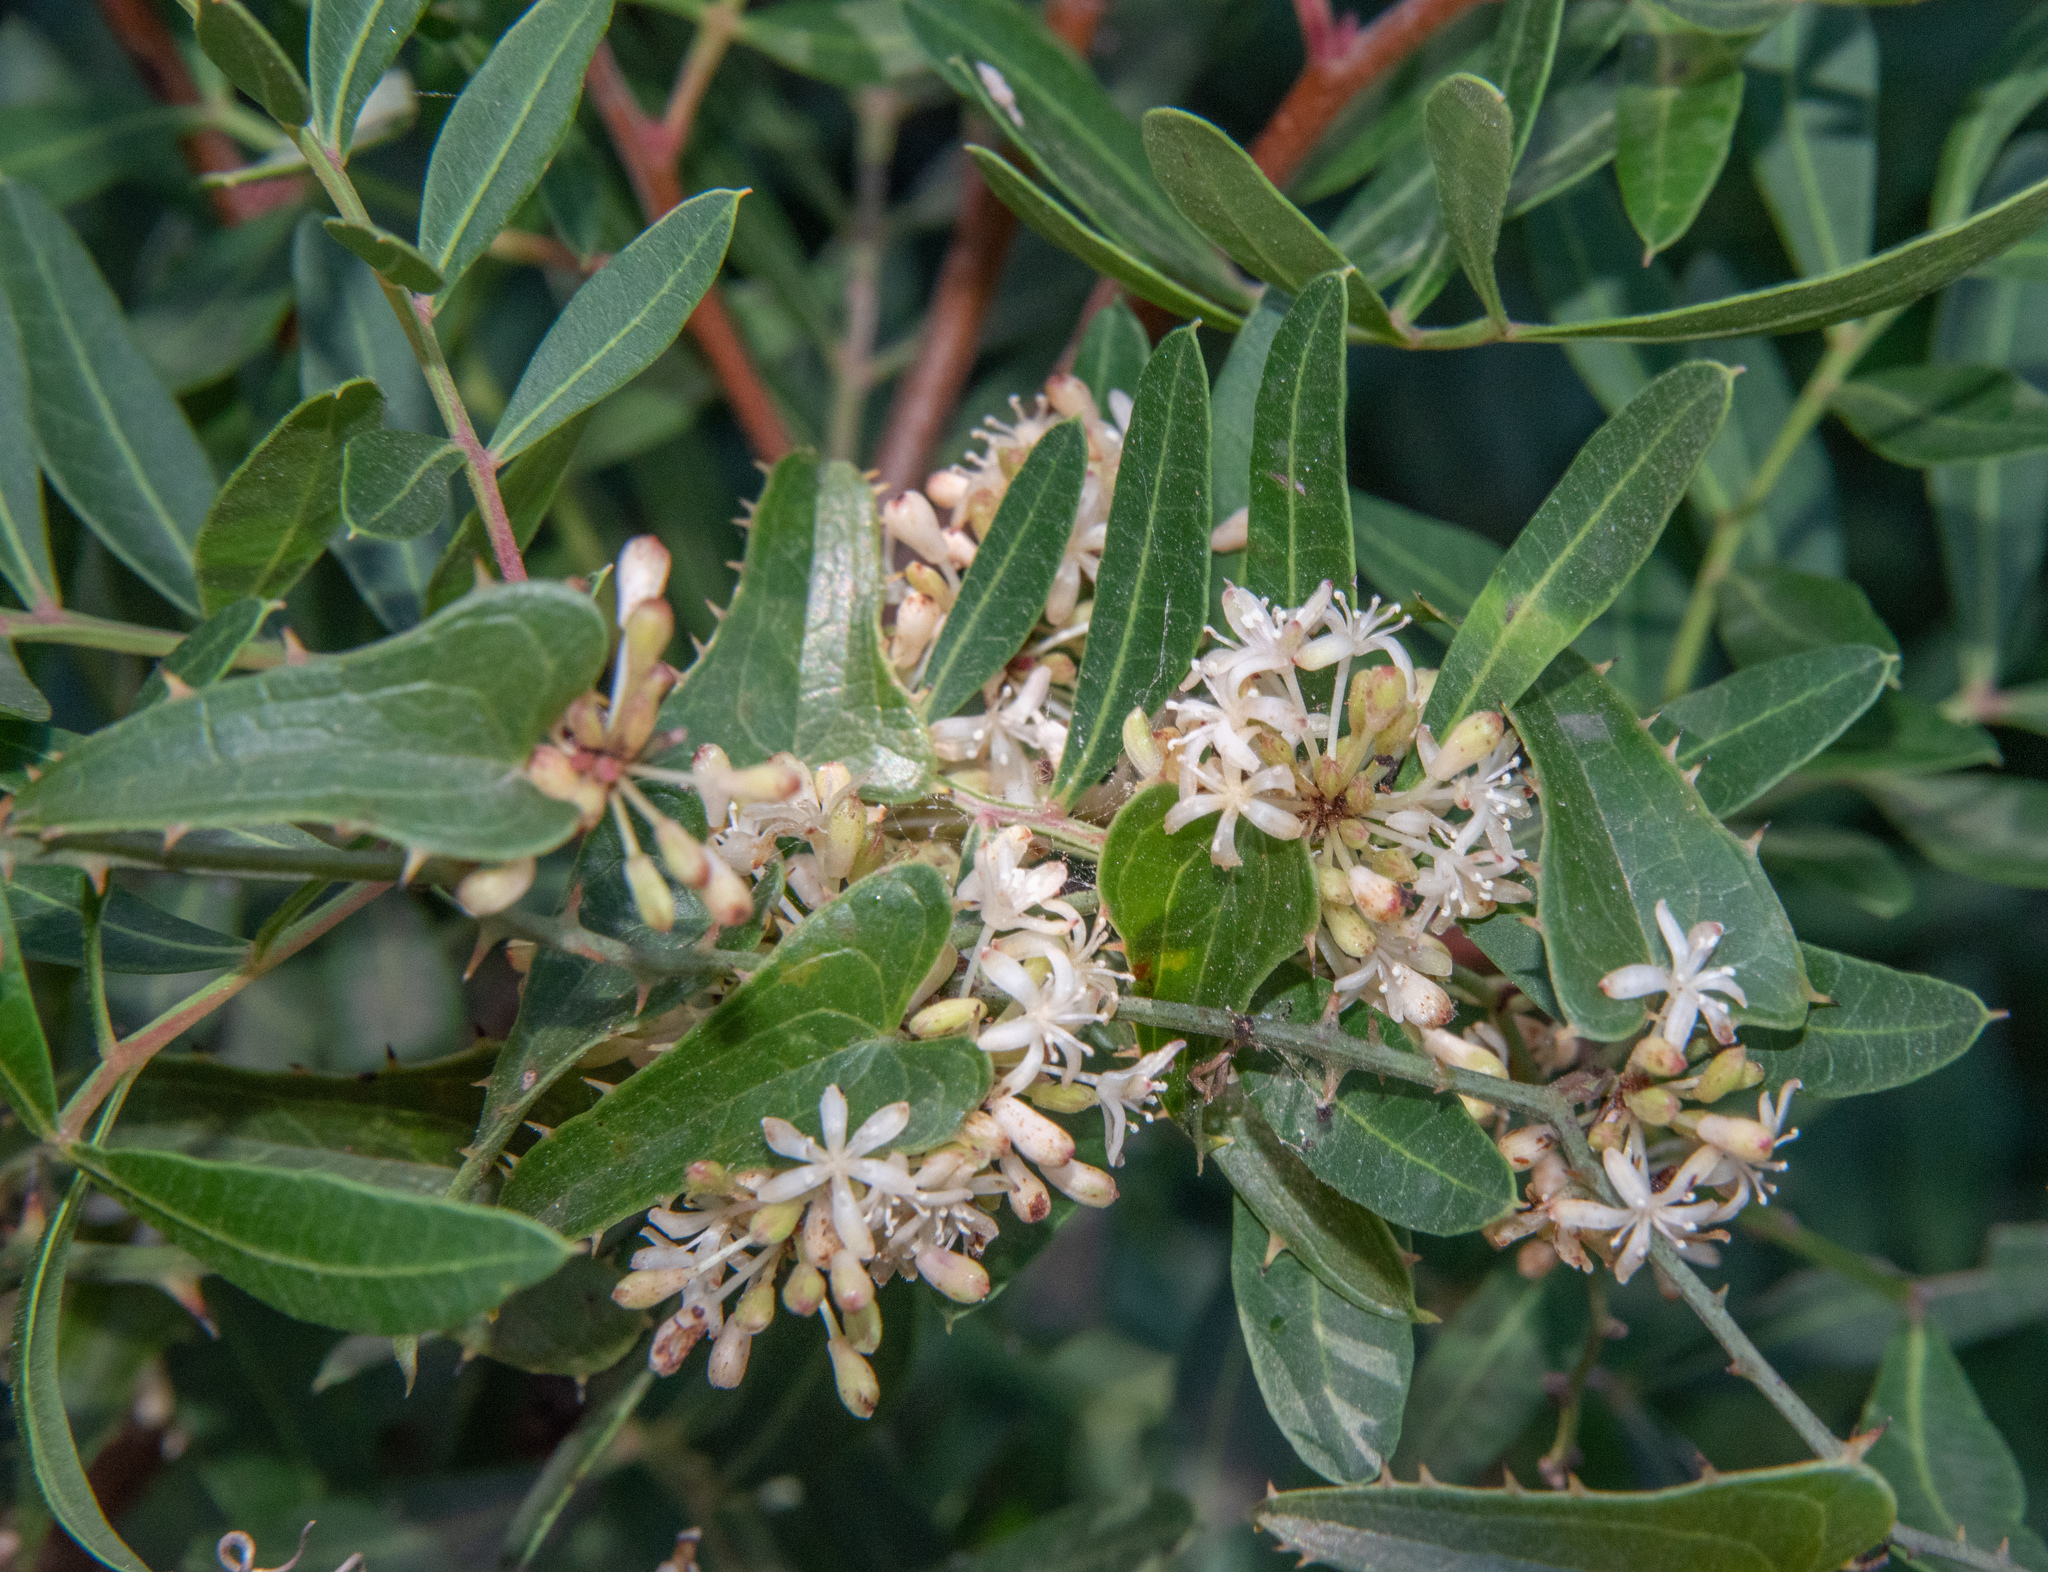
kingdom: Plantae
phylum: Tracheophyta
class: Liliopsida
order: Liliales
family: Smilacaceae
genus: Smilax
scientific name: Smilax aspera
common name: Common smilax
